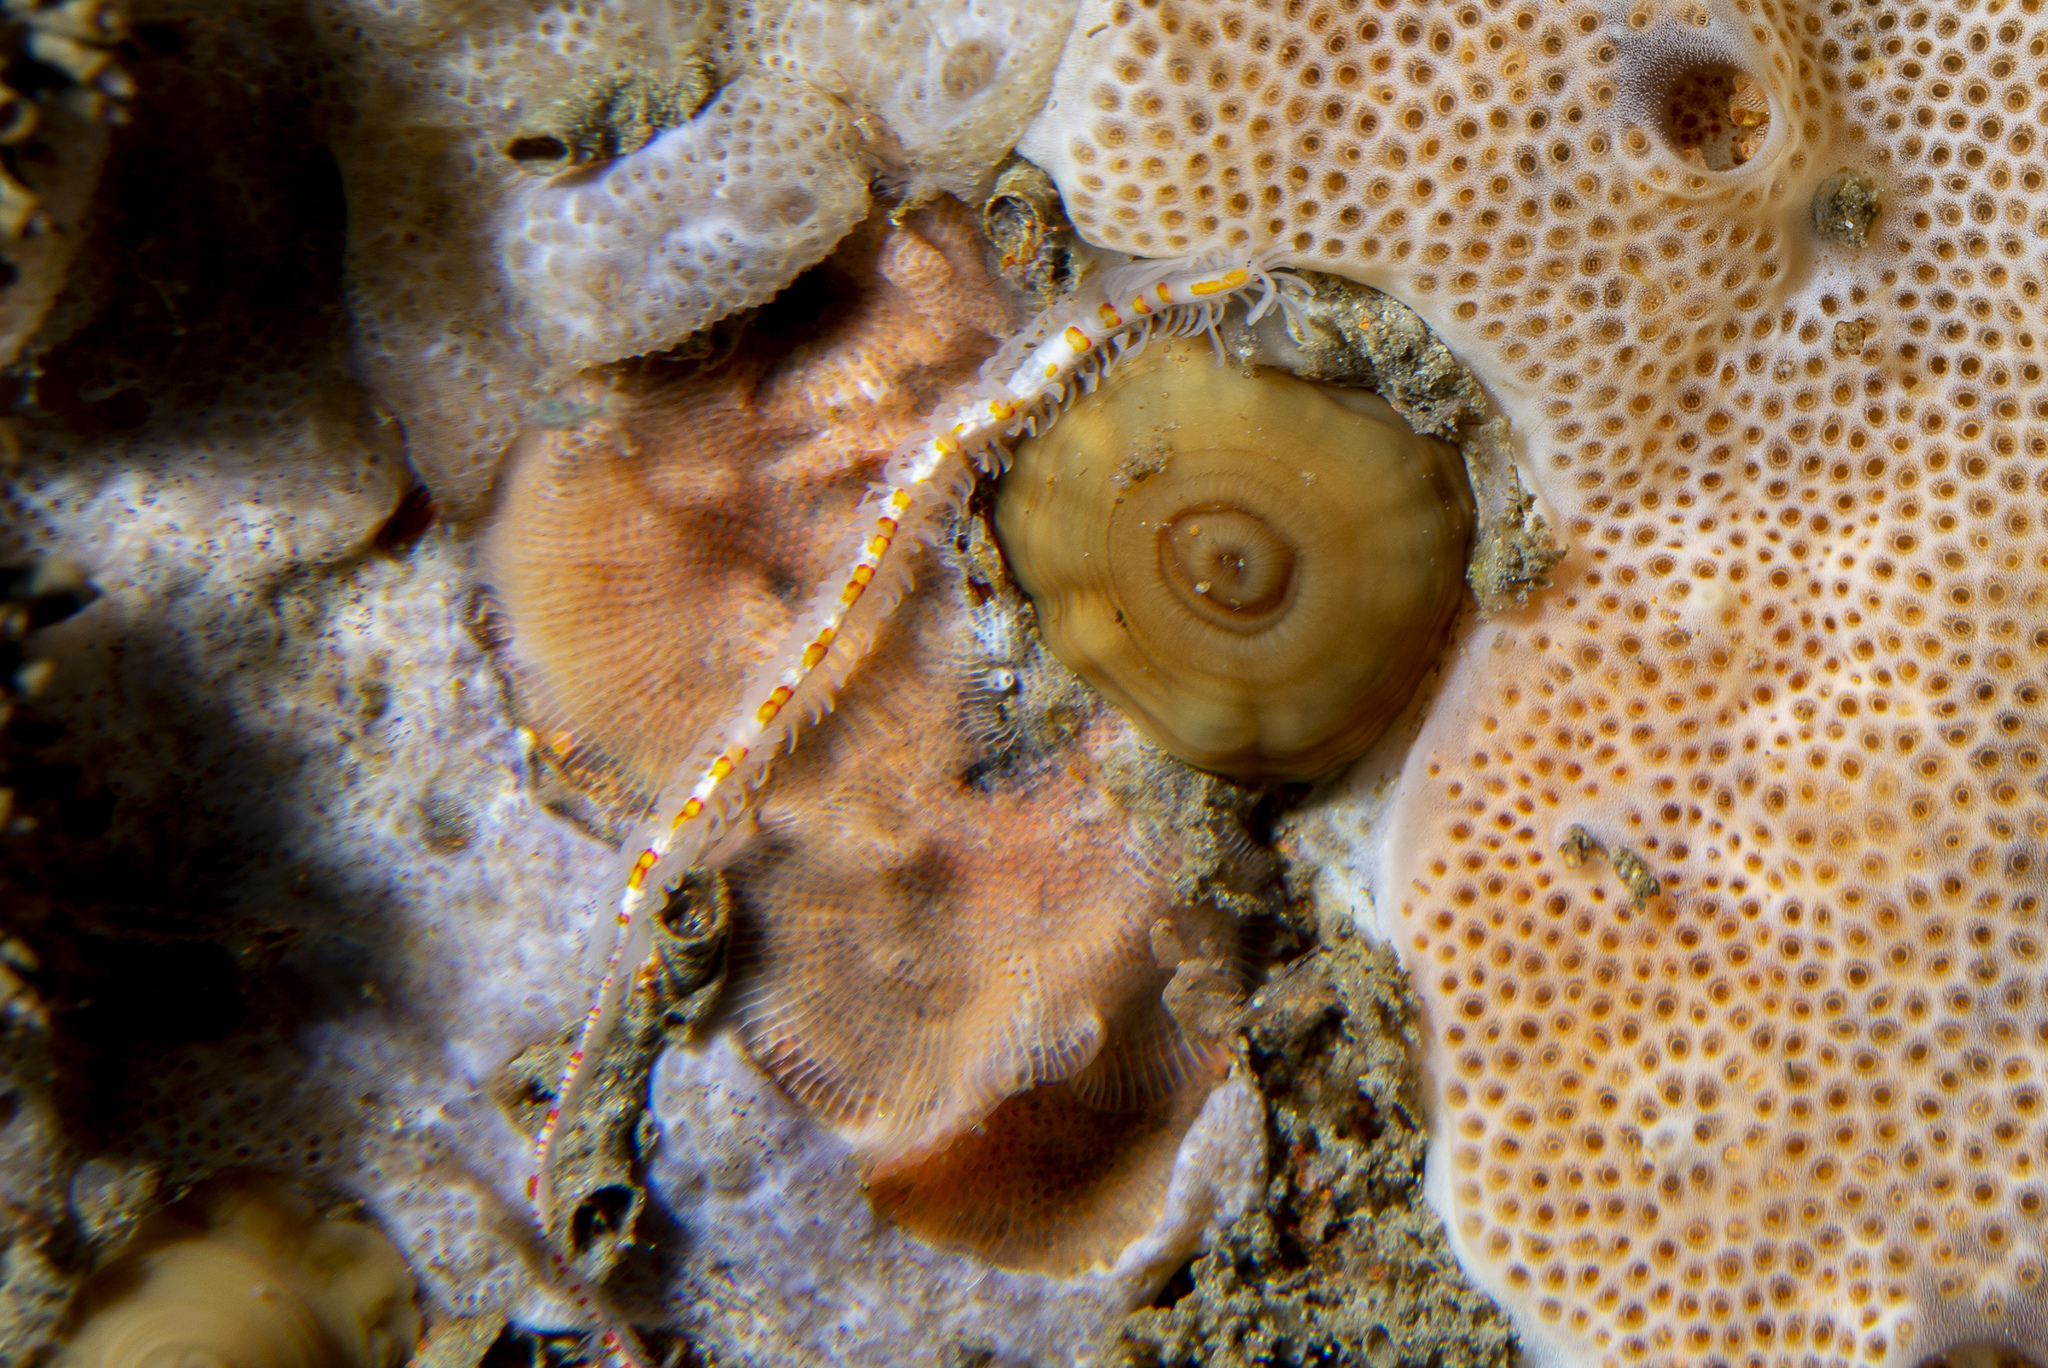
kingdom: Animalia
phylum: Annelida
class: Polychaeta
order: Phyllodocida
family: Syllidae
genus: Myrianida
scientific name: Myrianida pinnigera
